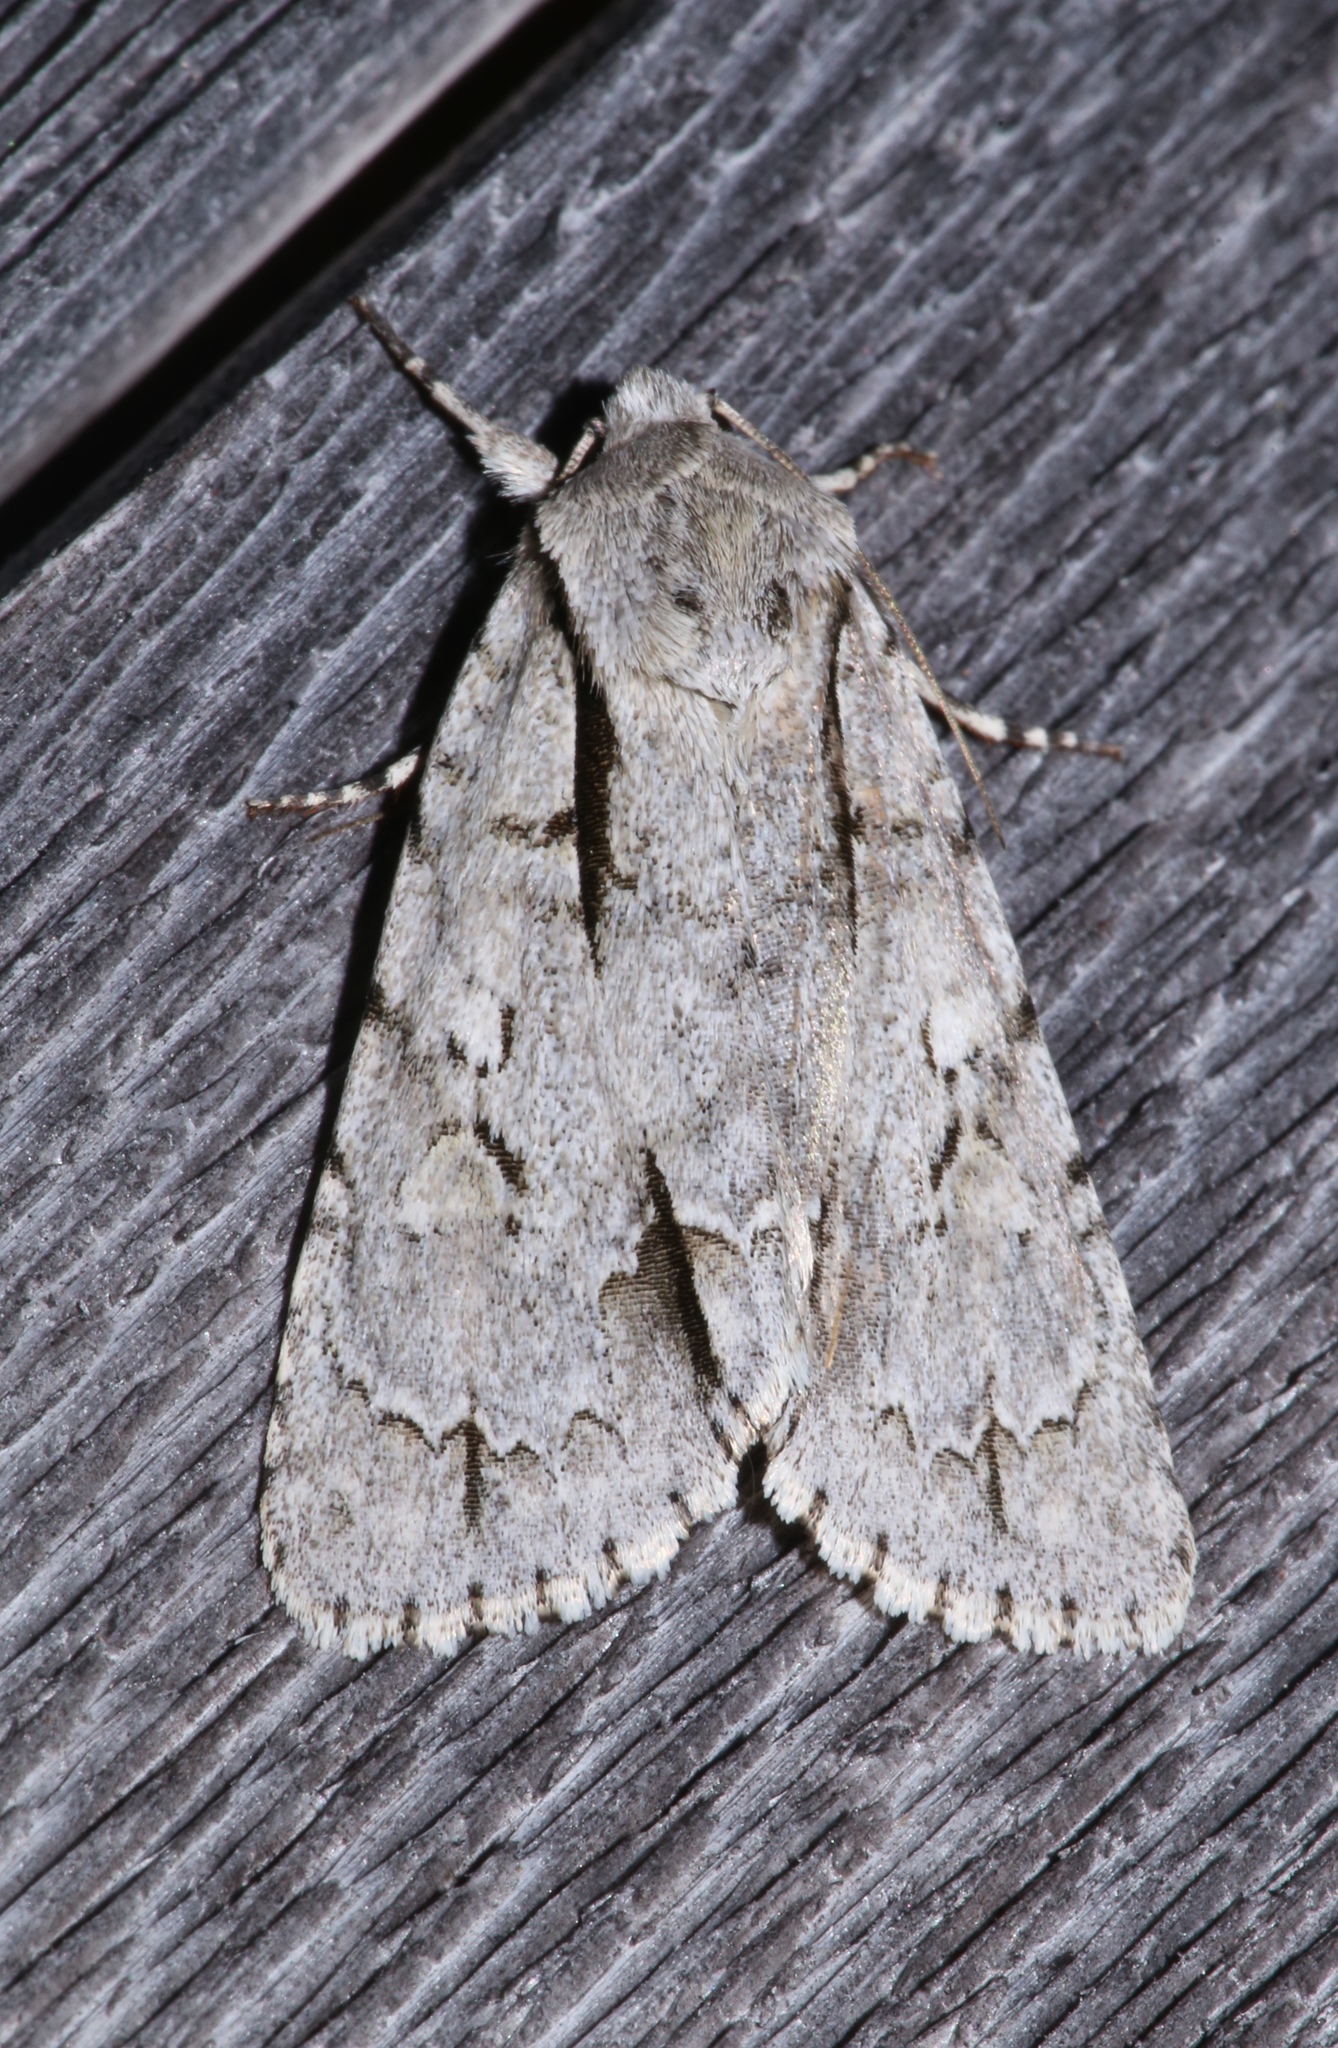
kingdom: Animalia
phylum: Arthropoda
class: Insecta
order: Lepidoptera
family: Noctuidae
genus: Acronicta
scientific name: Acronicta interrupta
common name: Interrupted dagger
